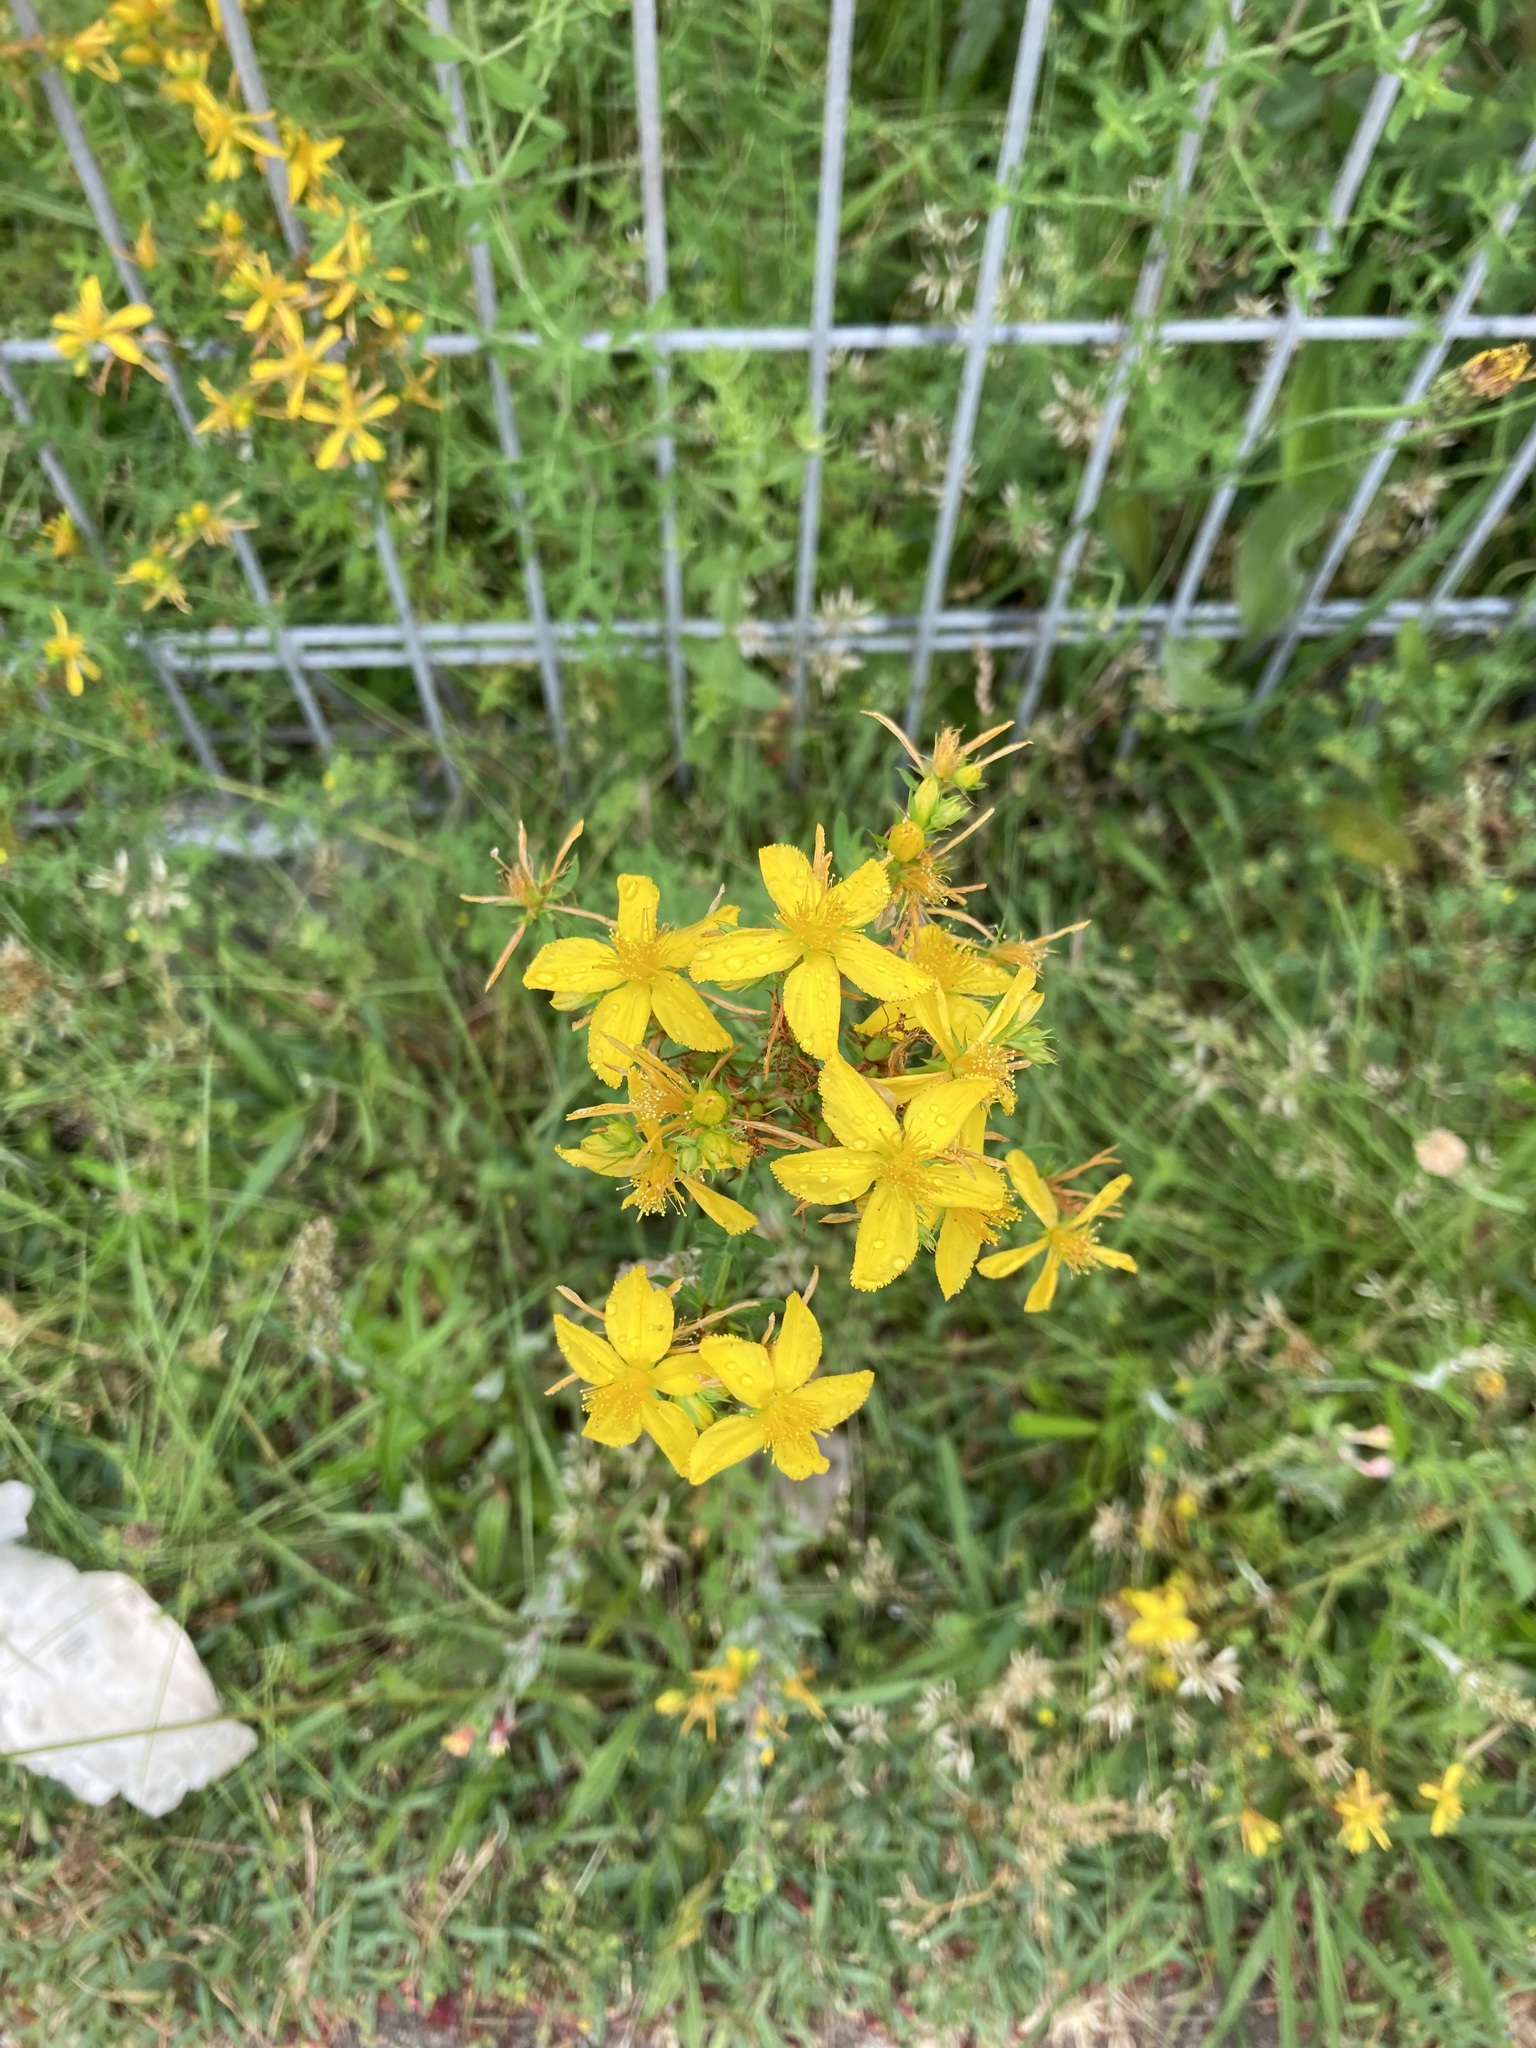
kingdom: Plantae
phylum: Tracheophyta
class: Magnoliopsida
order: Malpighiales
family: Hypericaceae
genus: Hypericum
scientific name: Hypericum perforatum
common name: Common st. johnswort
